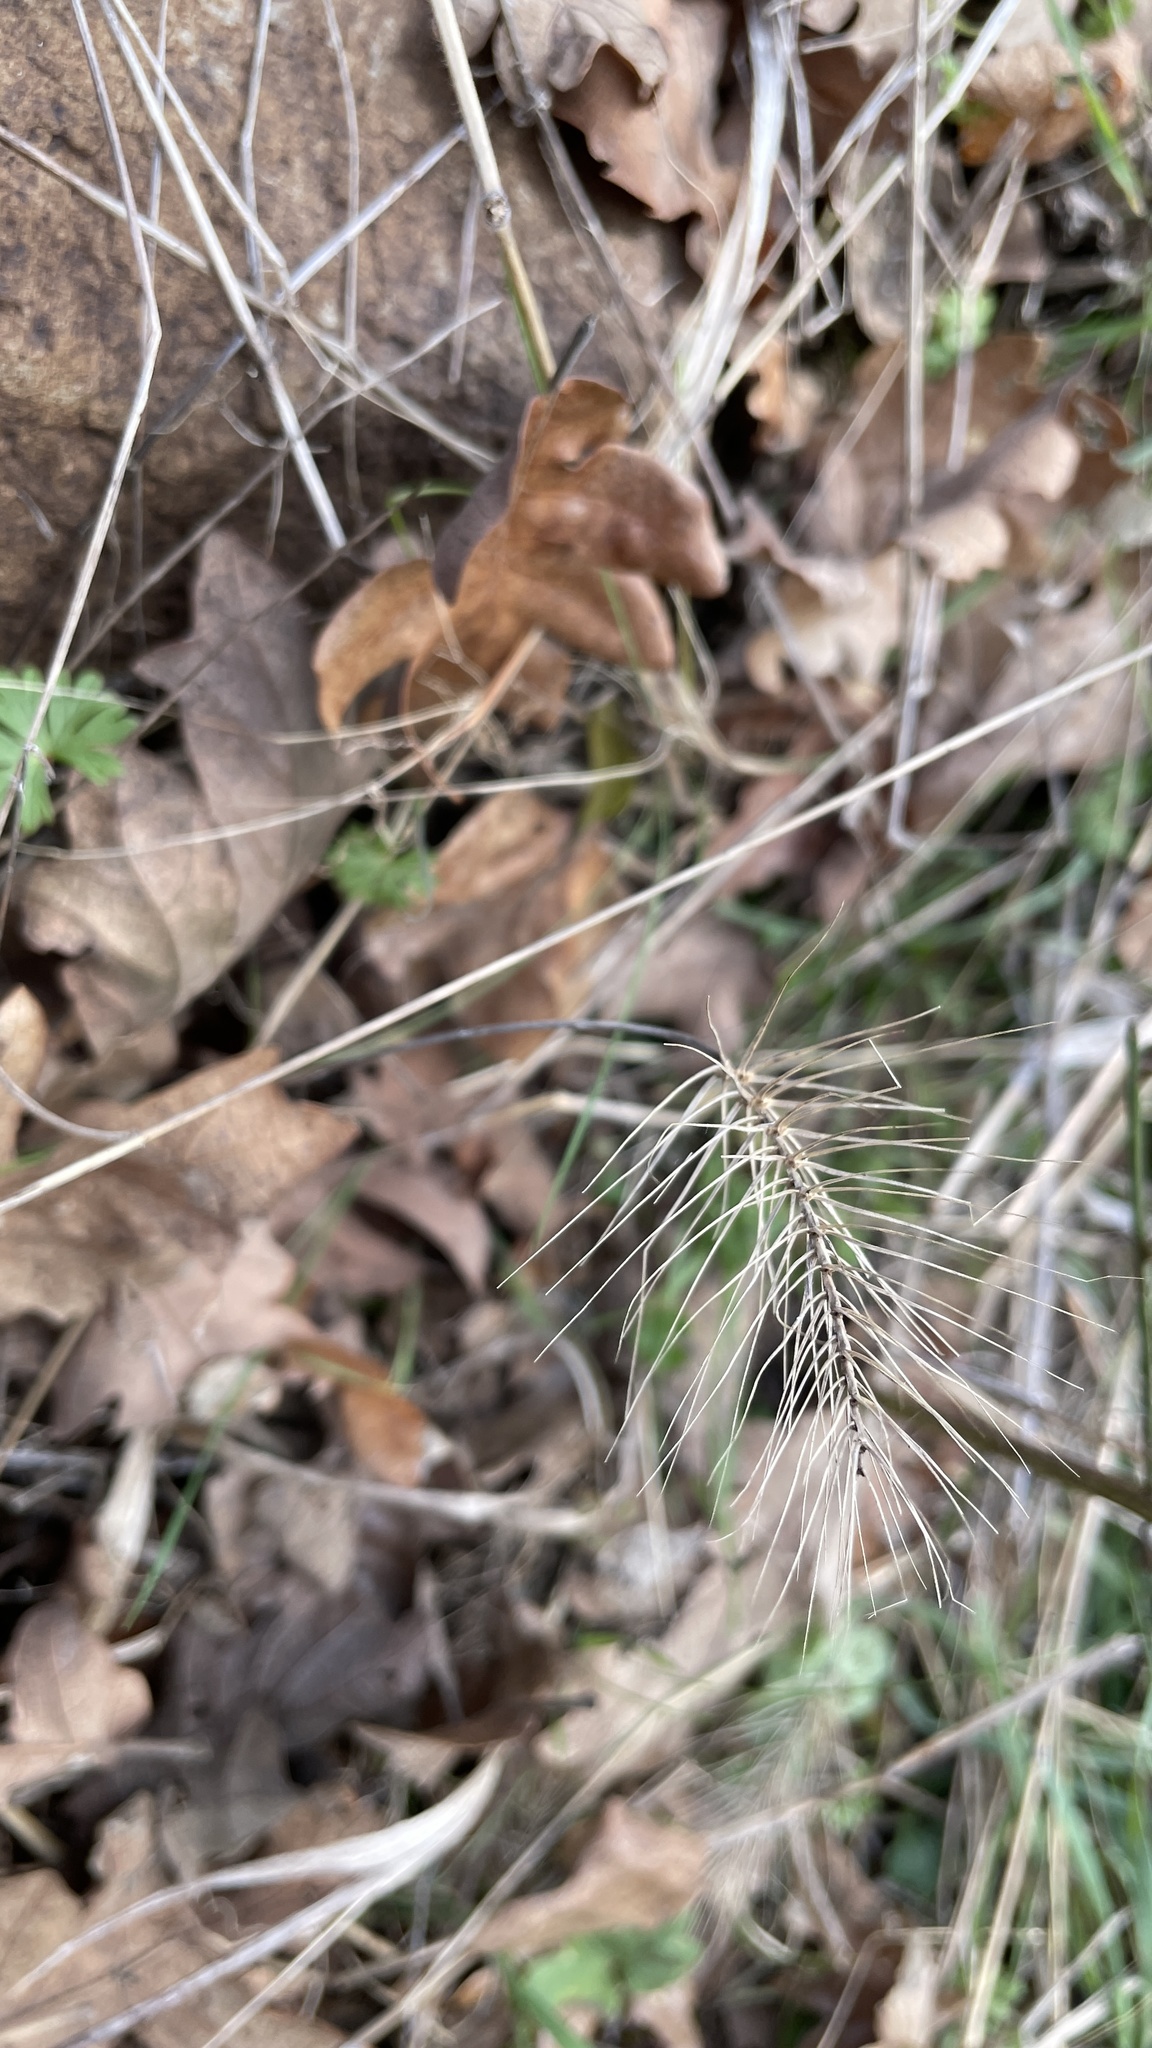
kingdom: Plantae
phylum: Tracheophyta
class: Liliopsida
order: Poales
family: Poaceae
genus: Taeniatherum
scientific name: Taeniatherum caput-medusae
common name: Medusahead
